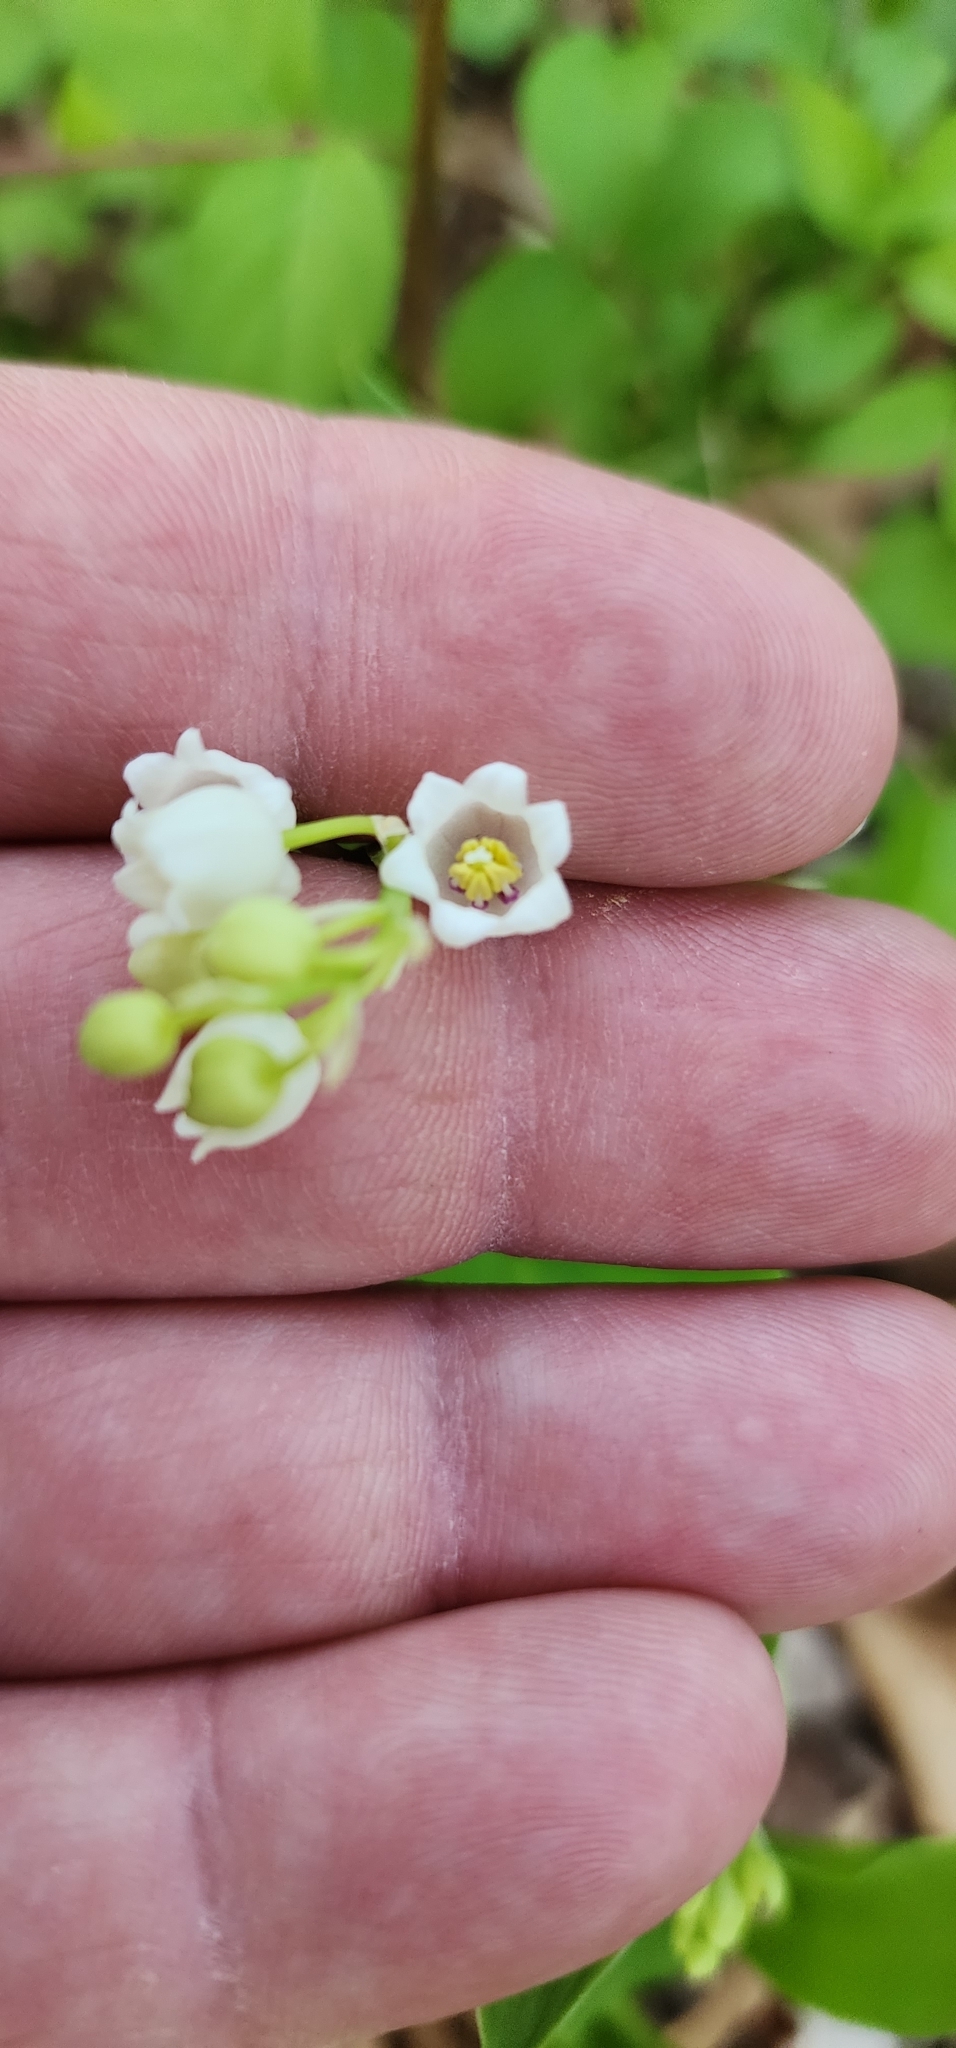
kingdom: Plantae
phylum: Tracheophyta
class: Liliopsida
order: Asparagales
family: Asparagaceae
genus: Convallaria
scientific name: Convallaria majalis
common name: Lily-of-the-valley
